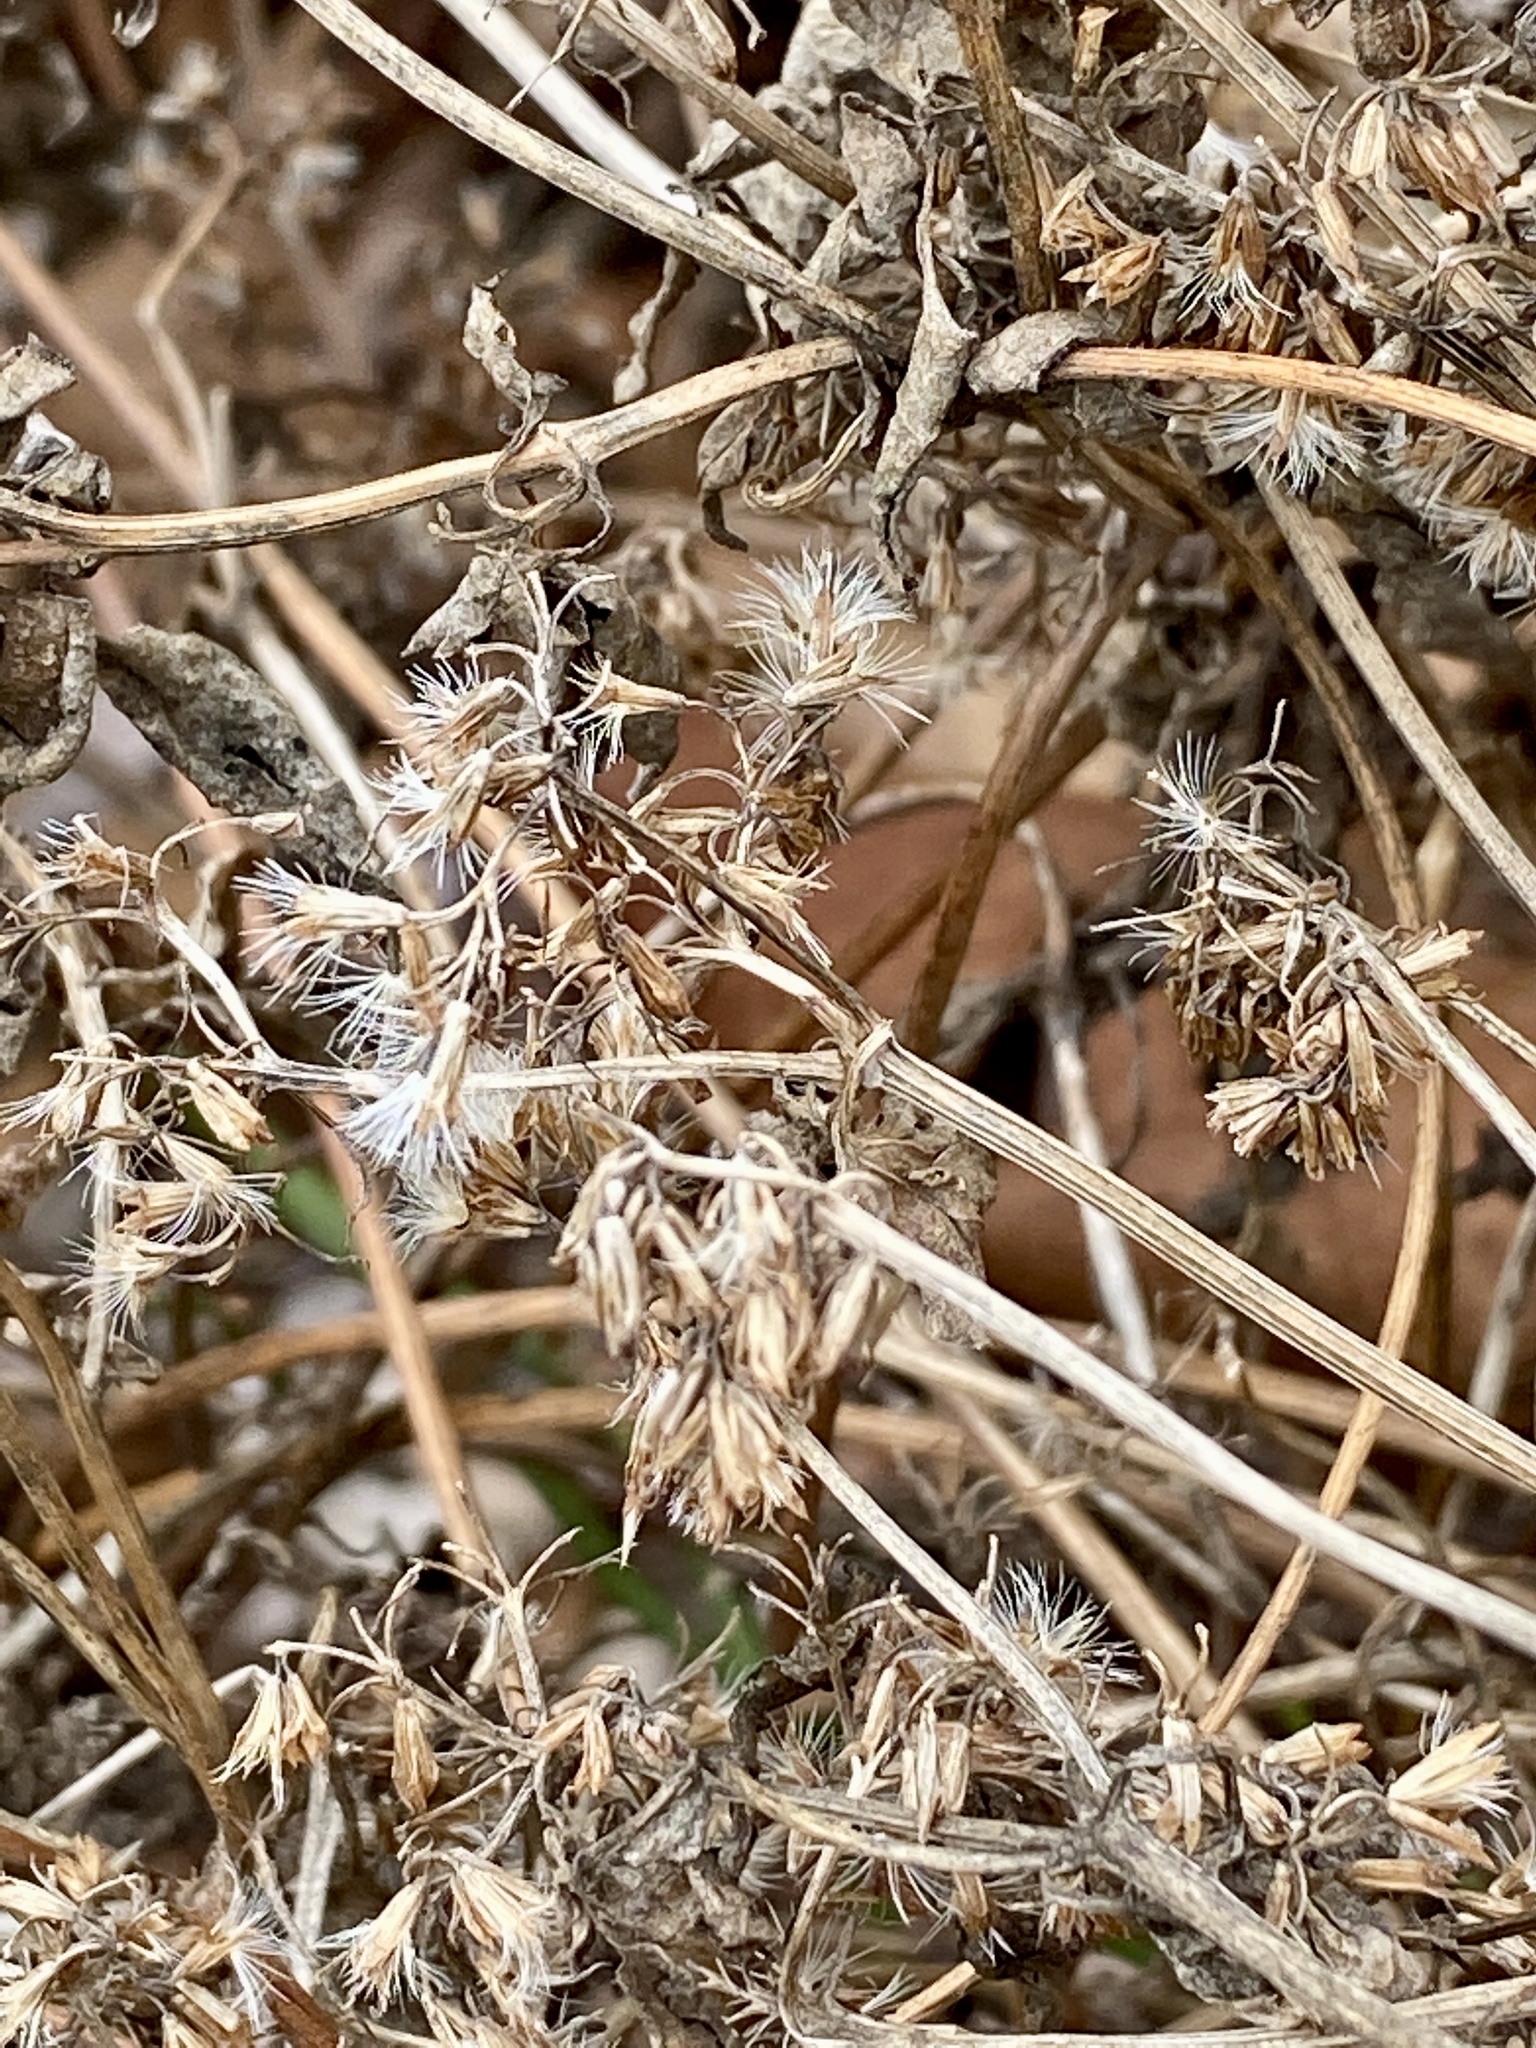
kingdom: Plantae
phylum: Tracheophyta
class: Magnoliopsida
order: Asterales
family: Asteraceae
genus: Mikania
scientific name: Mikania scandens
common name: Climbing hempvine
